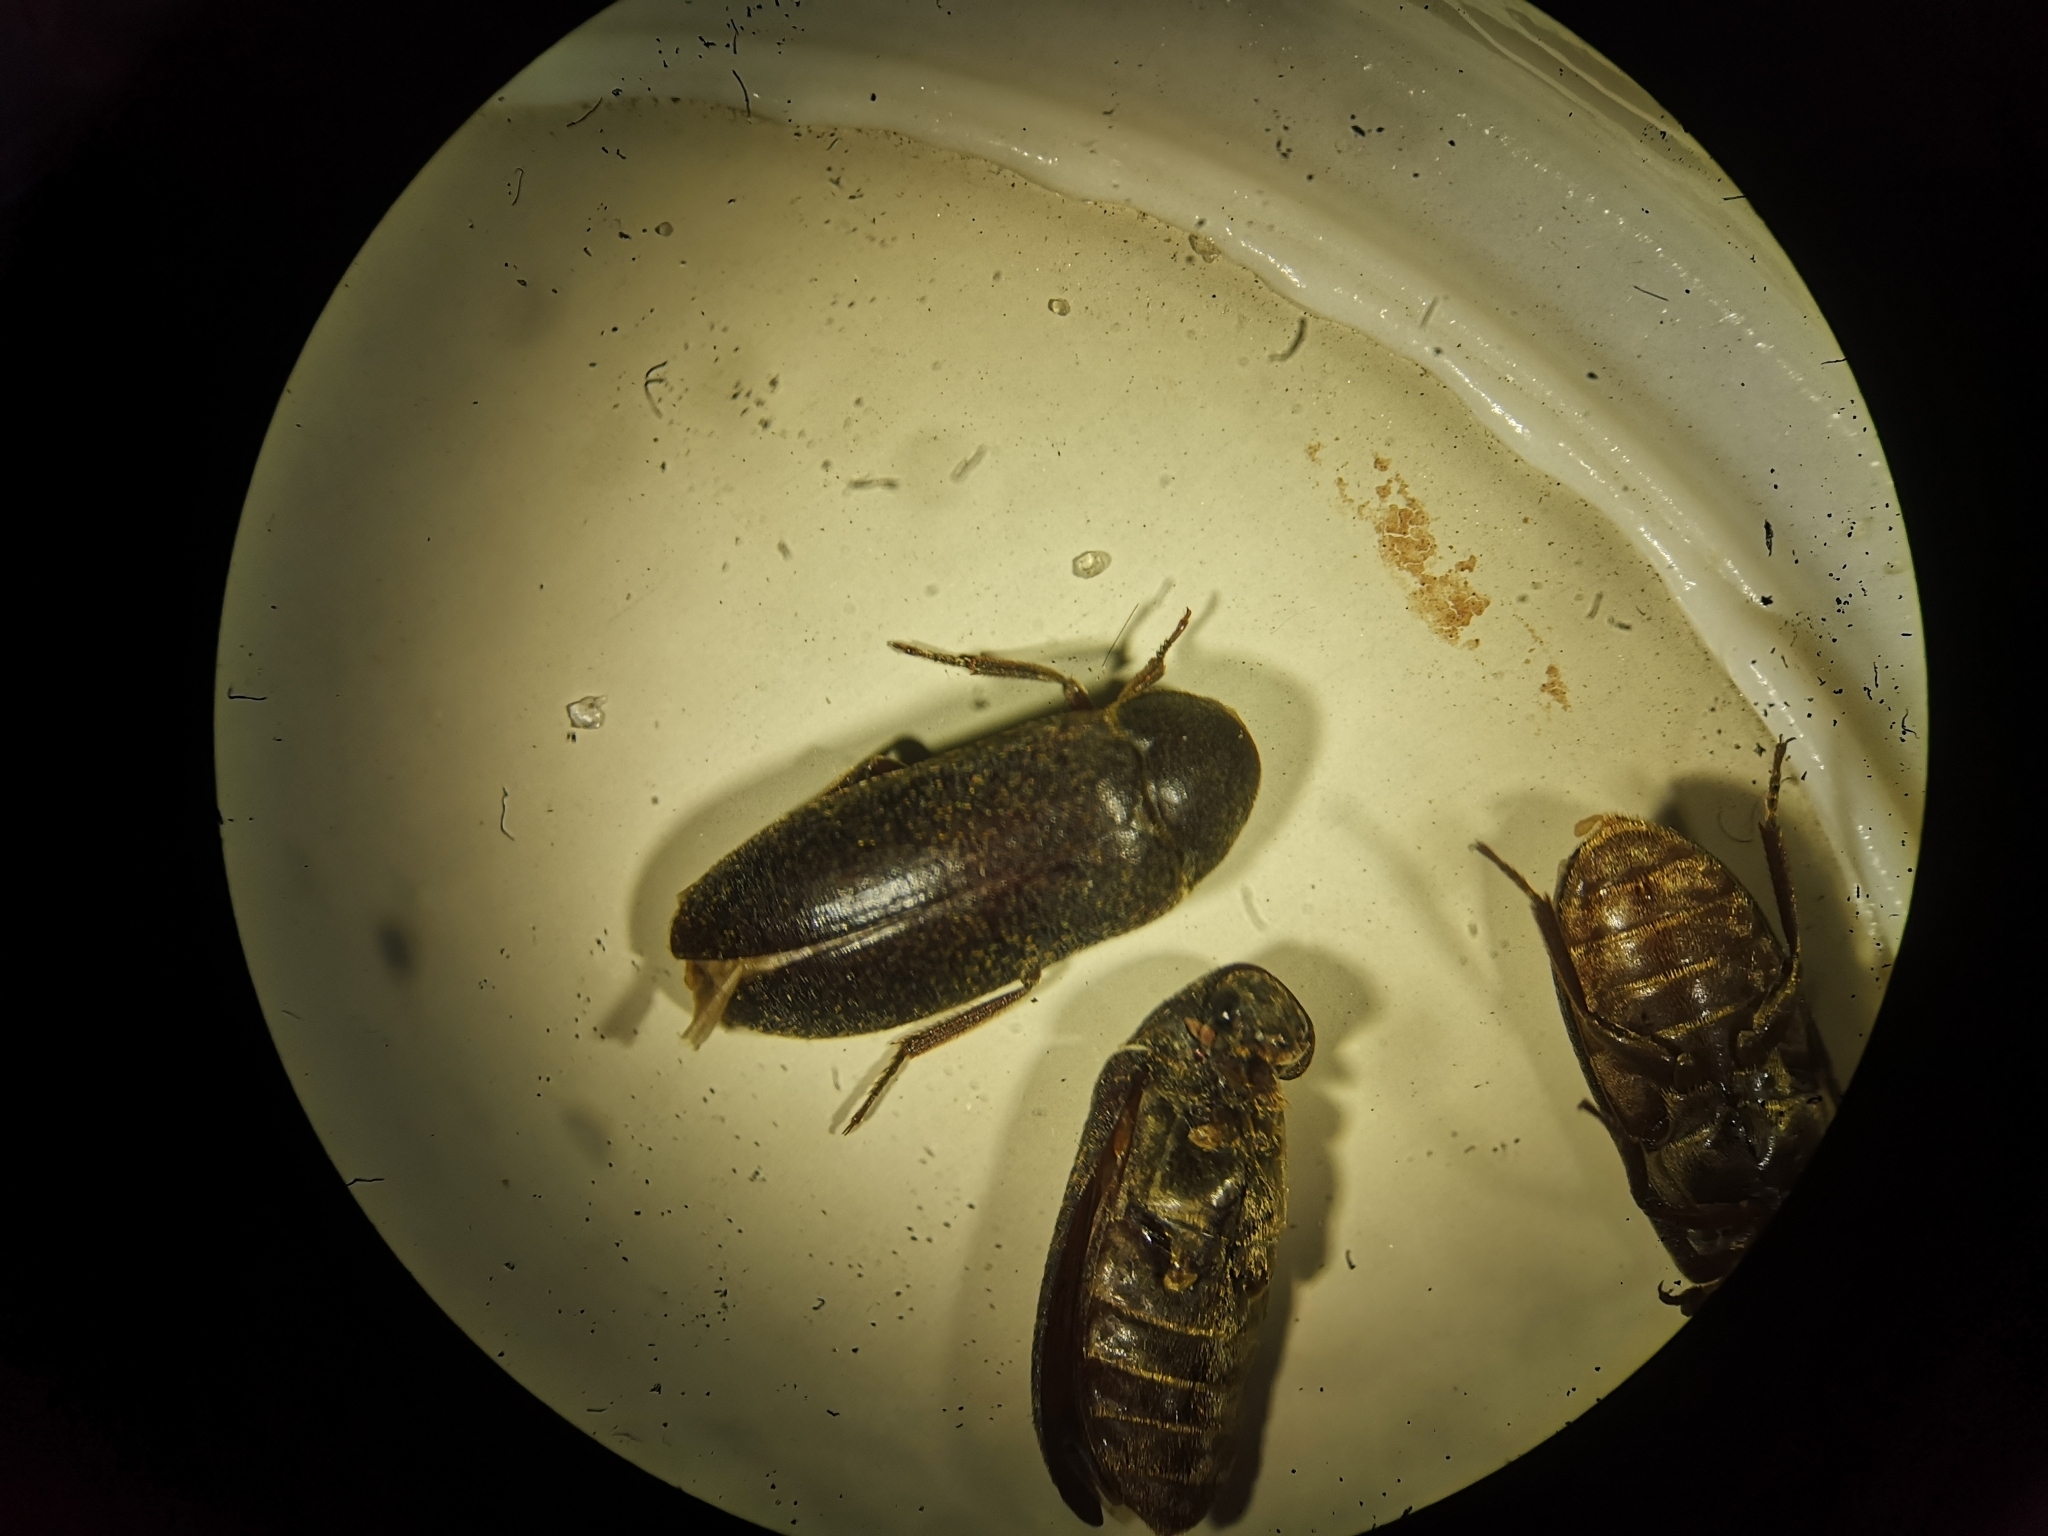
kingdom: Animalia
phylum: Arthropoda
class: Insecta
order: Coleoptera
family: Dermestidae
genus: Dermestes
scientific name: Dermestes haemorrhoidalis
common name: Black larder beetle
